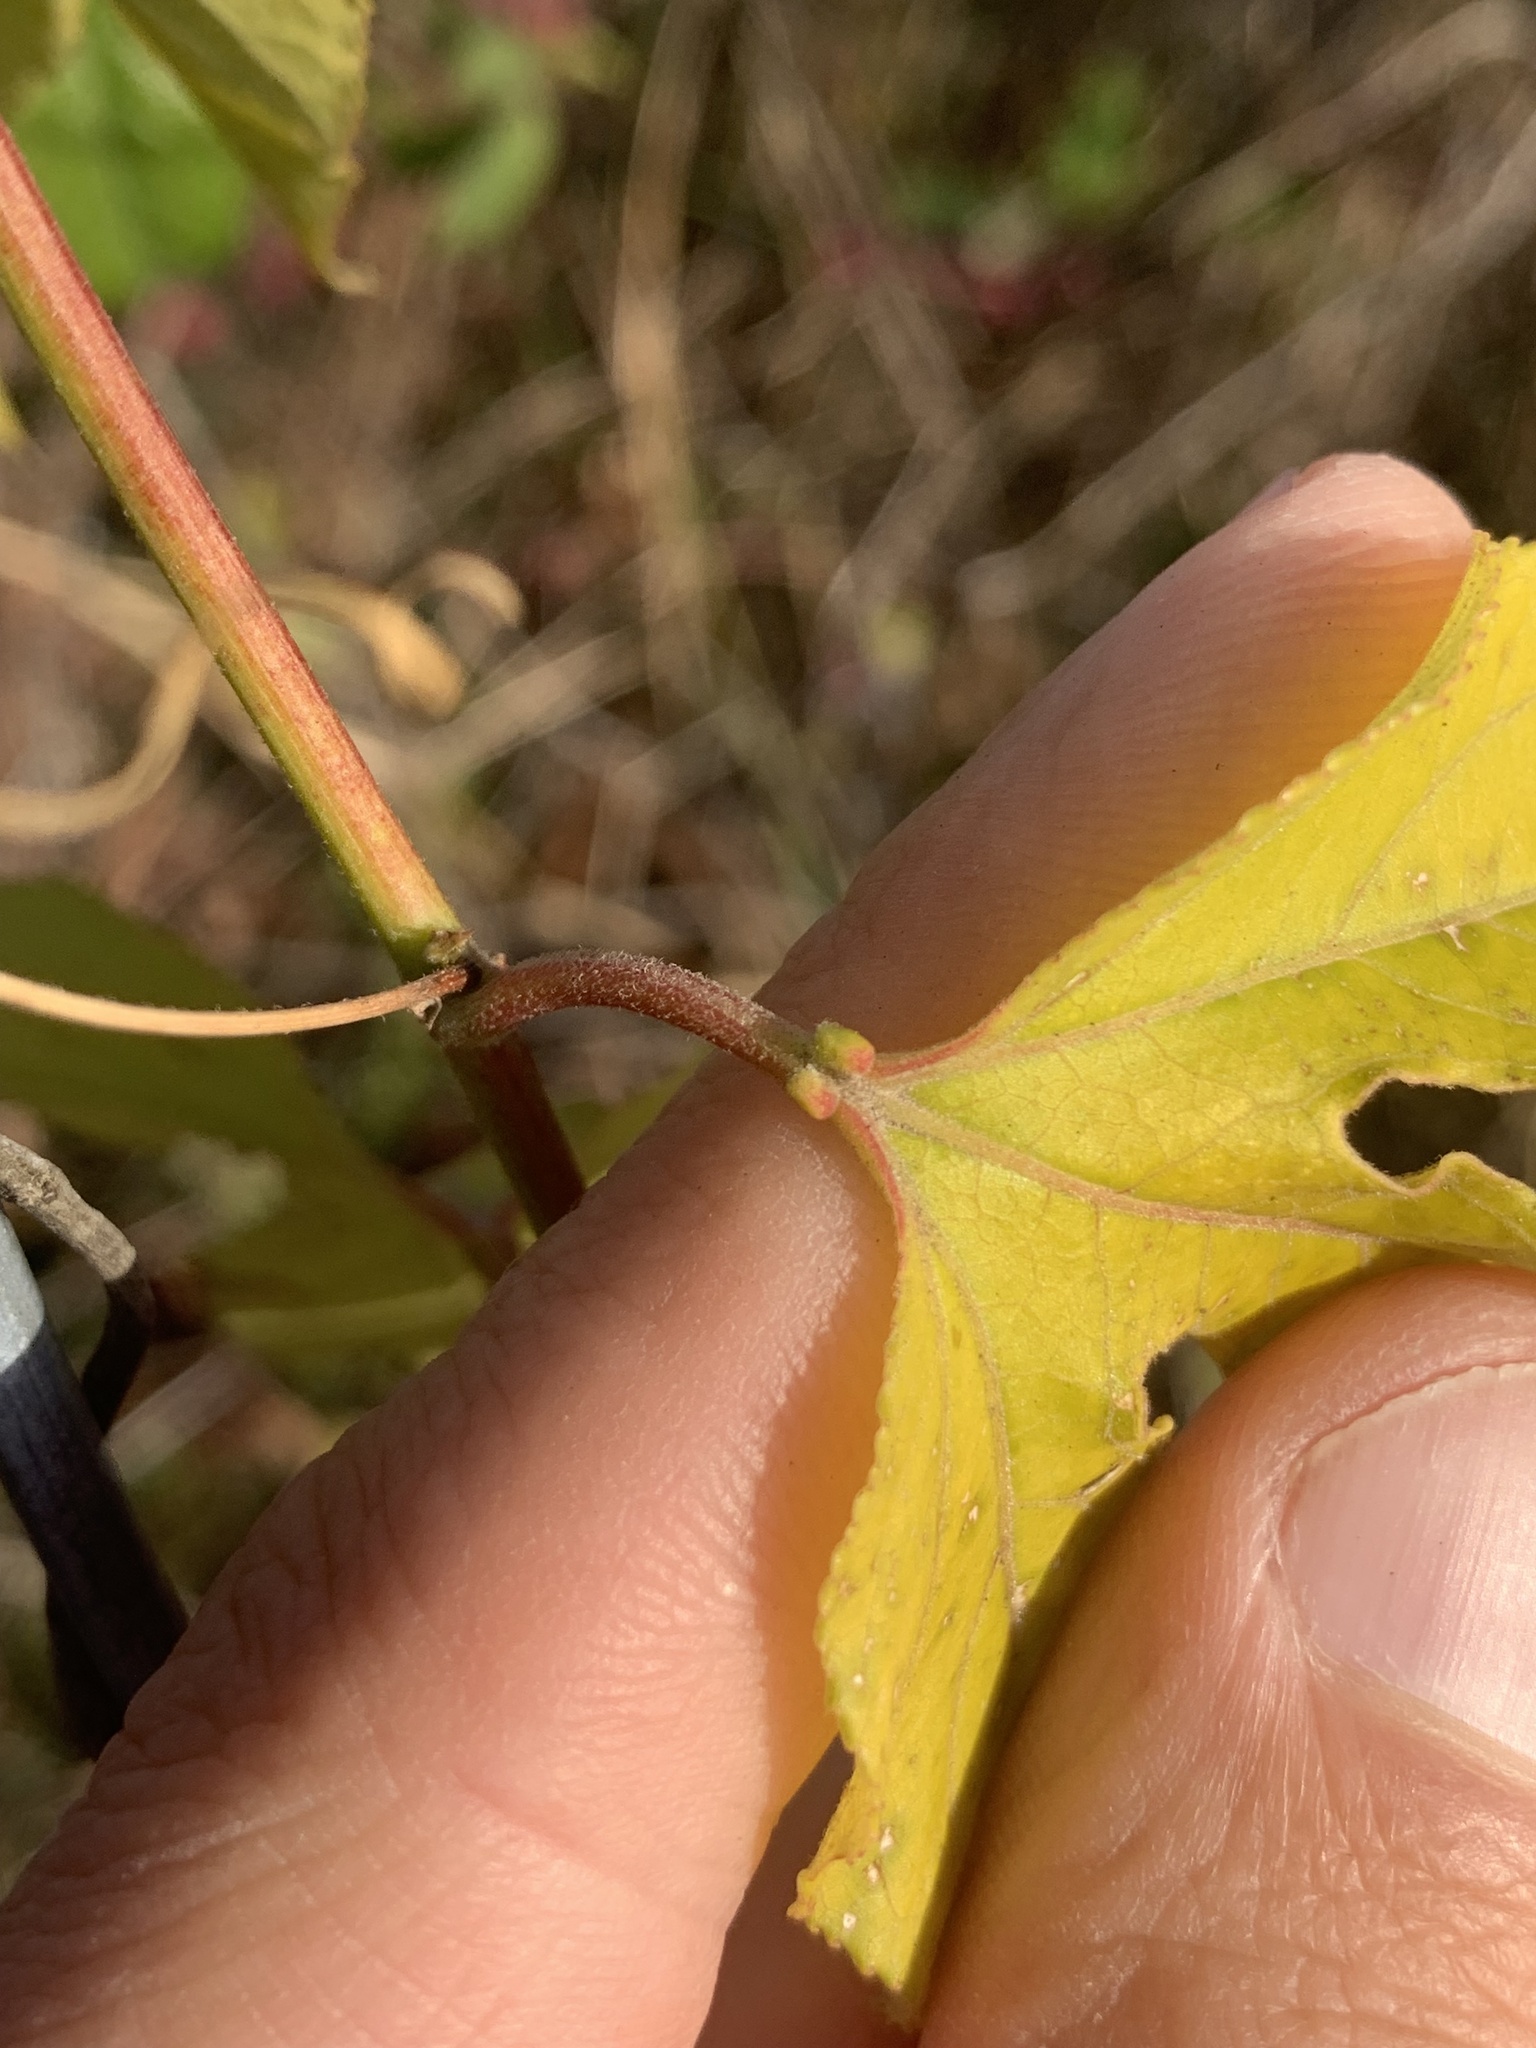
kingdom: Plantae
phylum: Tracheophyta
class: Magnoliopsida
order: Malpighiales
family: Passifloraceae
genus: Passiflora
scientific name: Passiflora incarnata
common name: Apricot-vine
